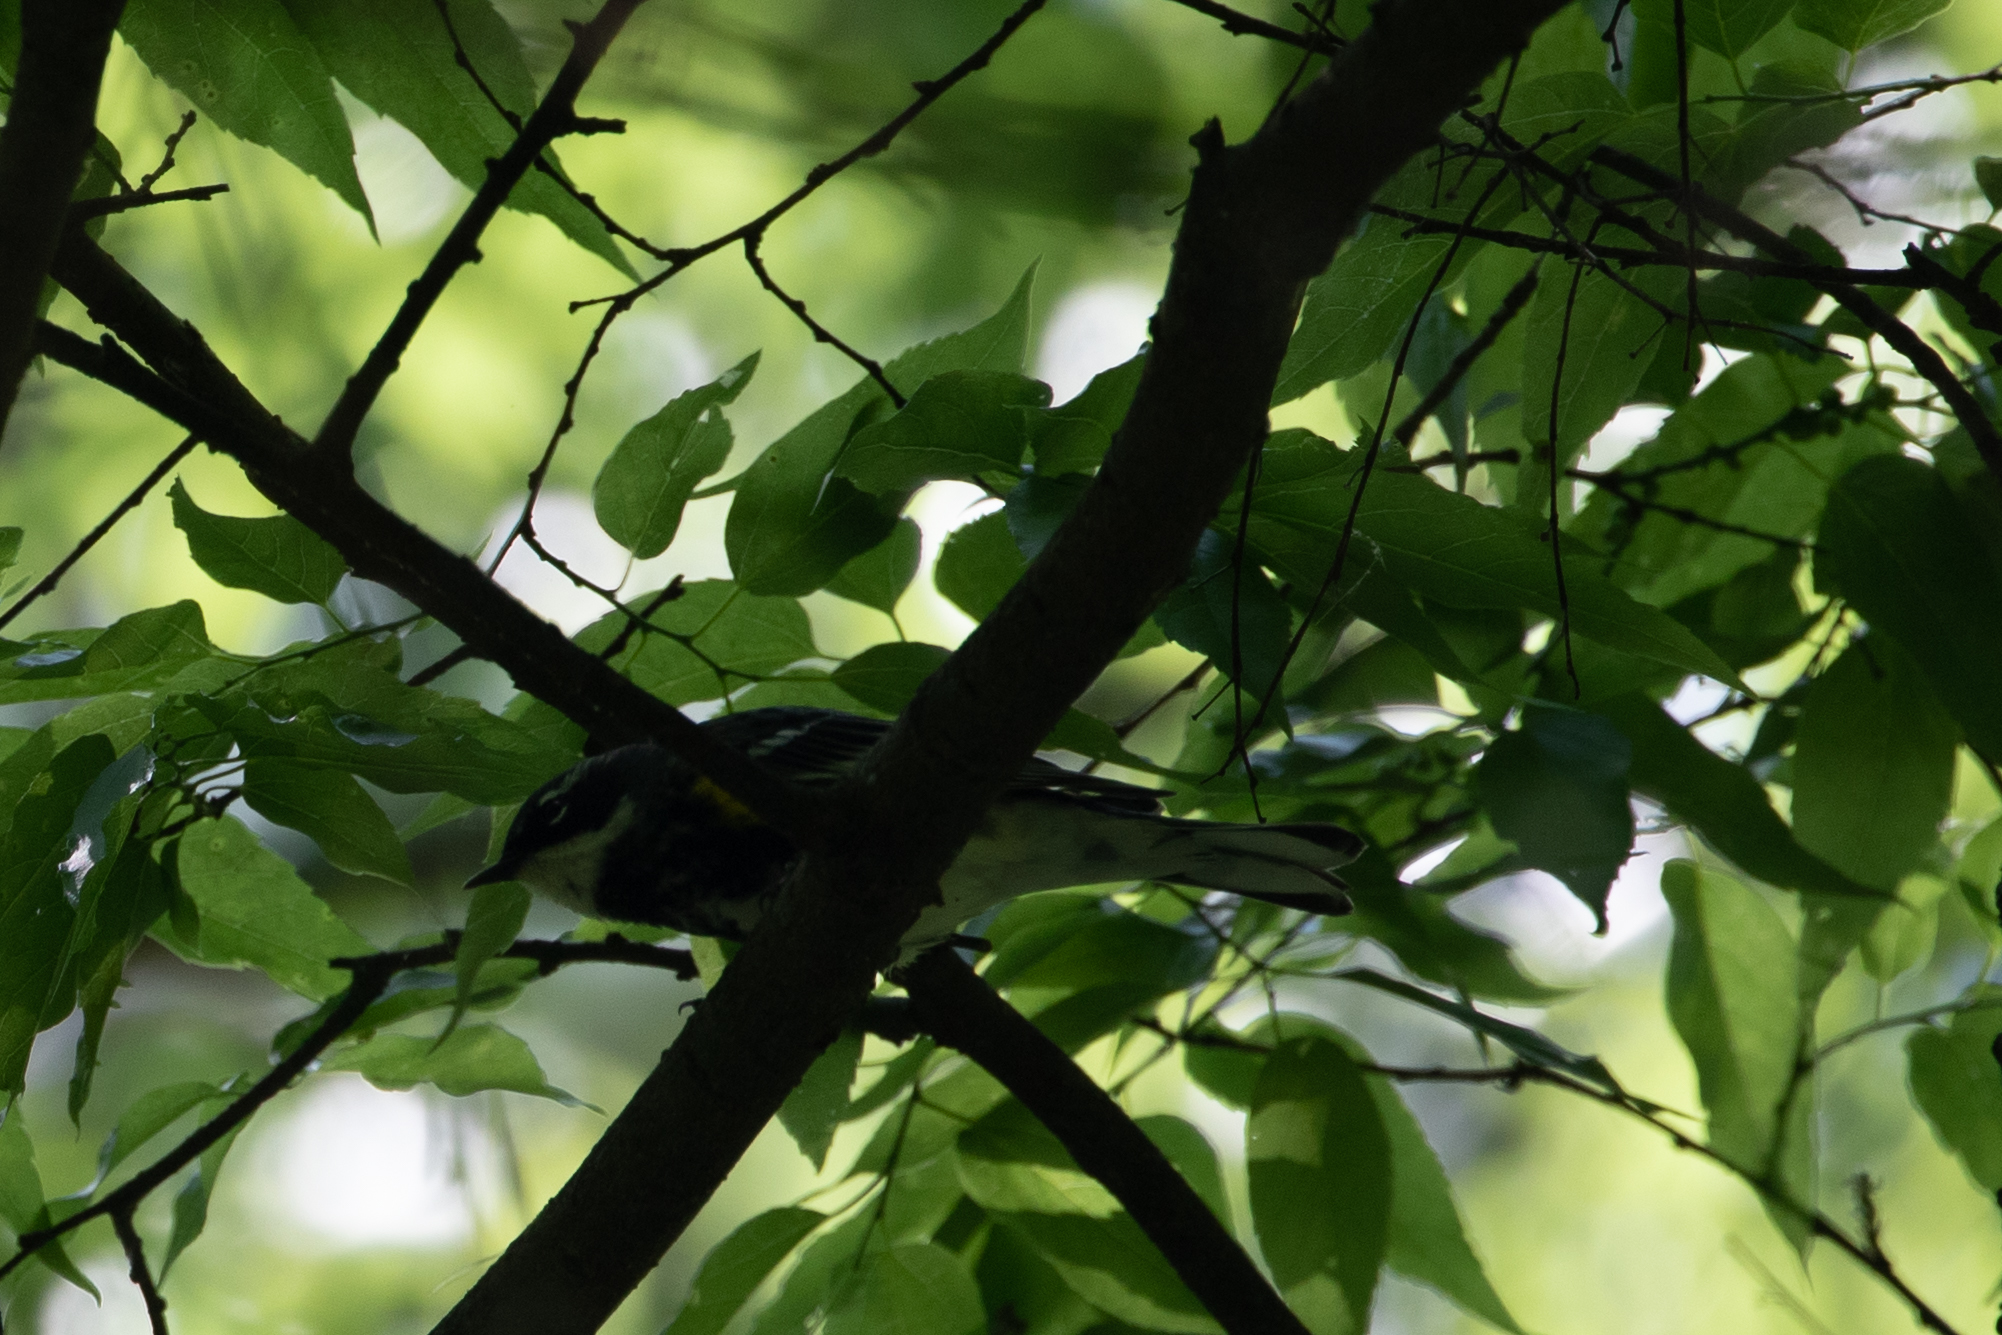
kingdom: Animalia
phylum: Chordata
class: Aves
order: Passeriformes
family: Parulidae
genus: Setophaga
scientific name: Setophaga coronata
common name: Myrtle warbler
